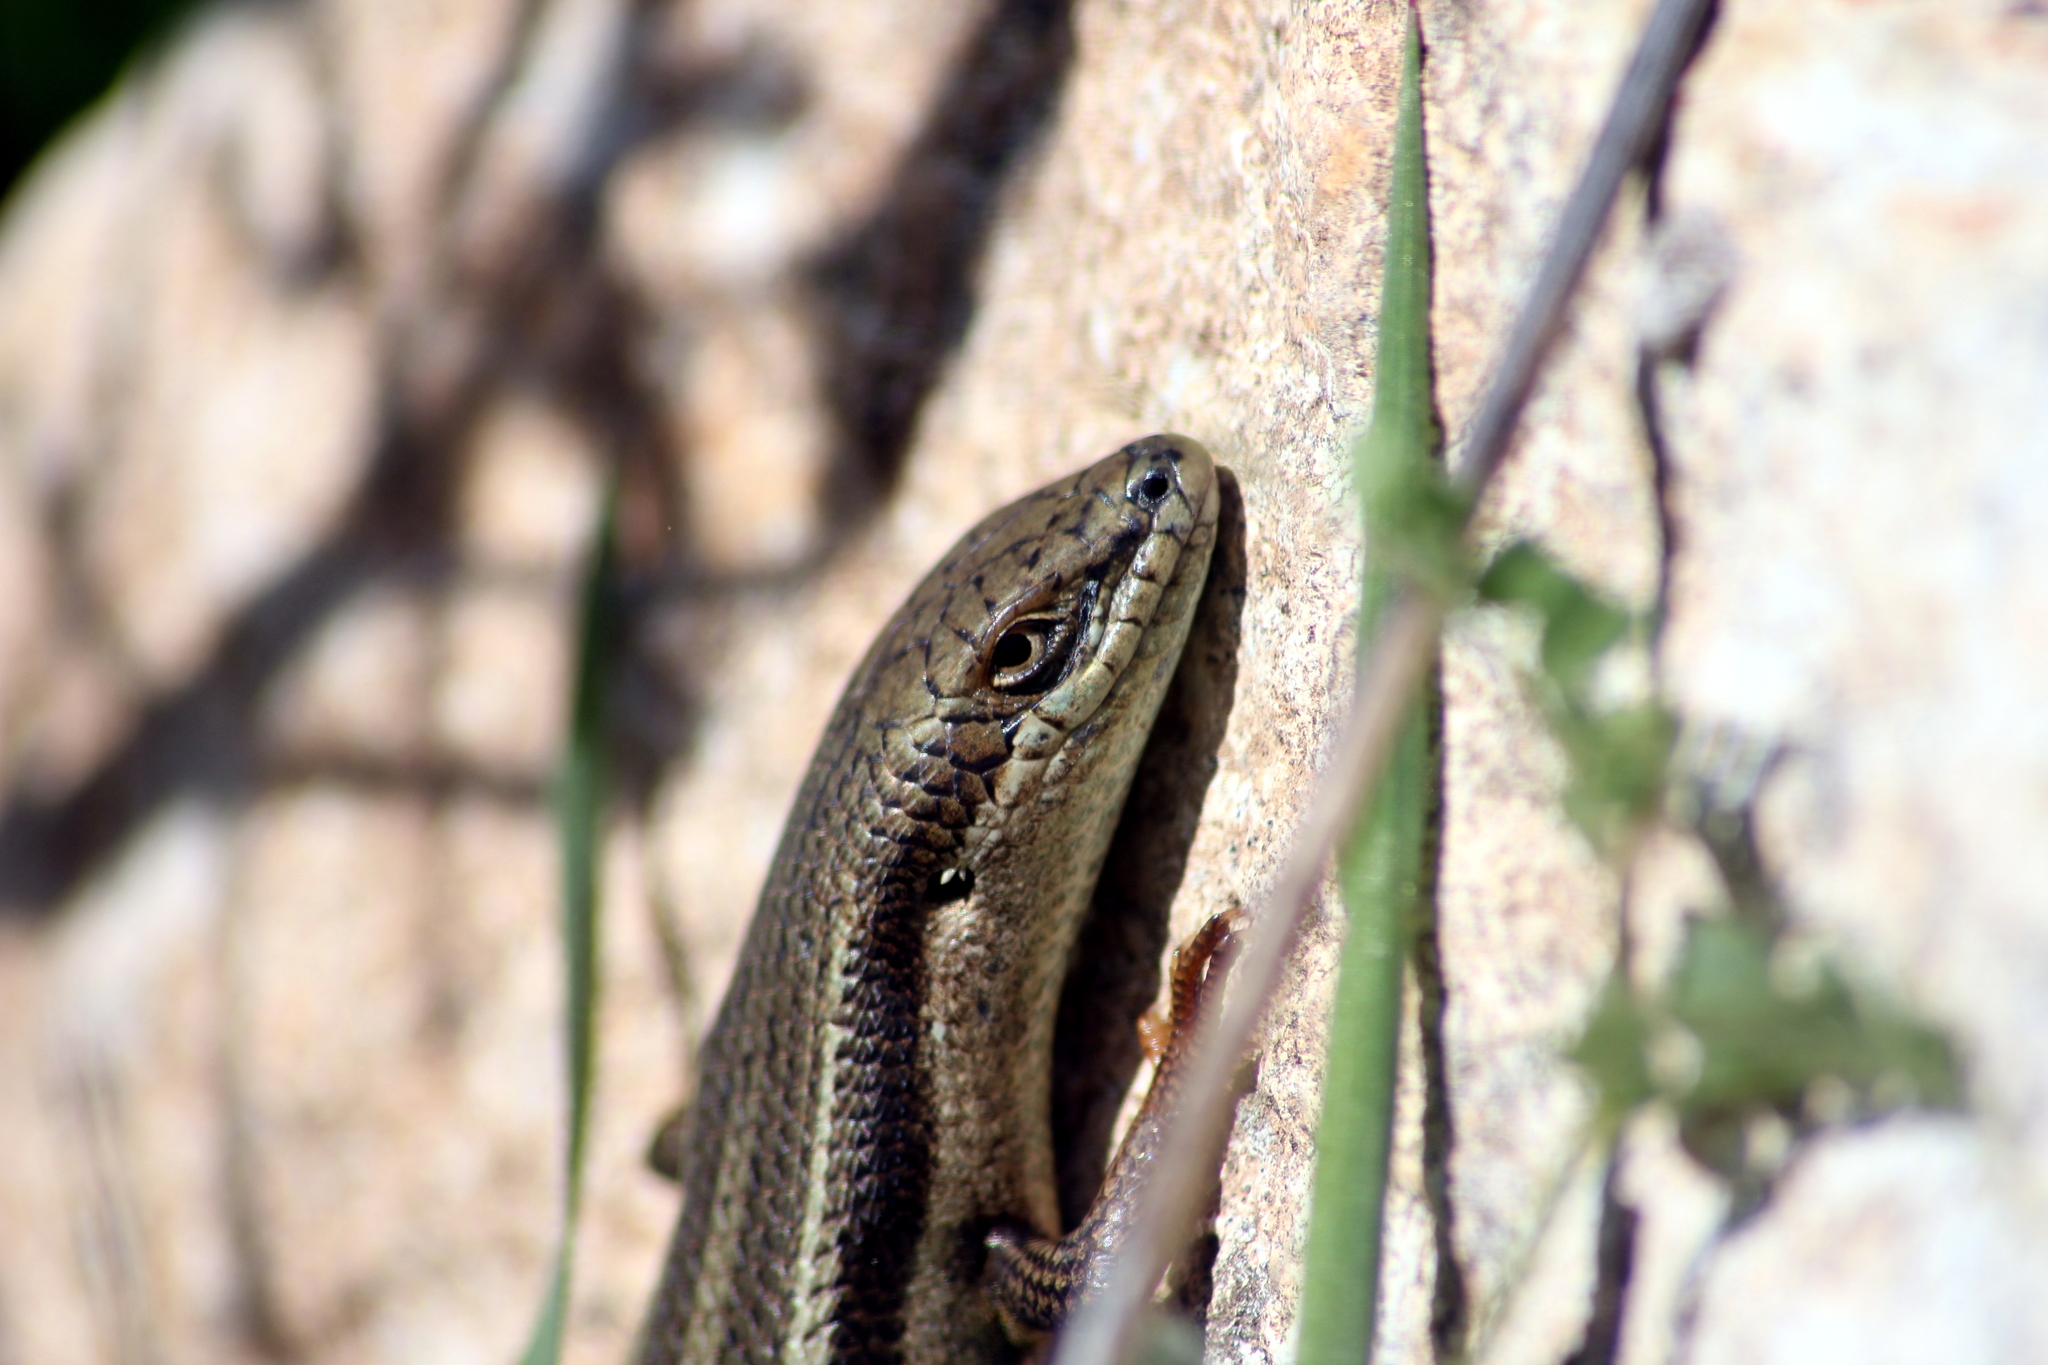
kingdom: Animalia
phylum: Chordata
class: Squamata
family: Scincidae
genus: Heremites
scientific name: Heremites vittatus
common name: Bridled mabuya
